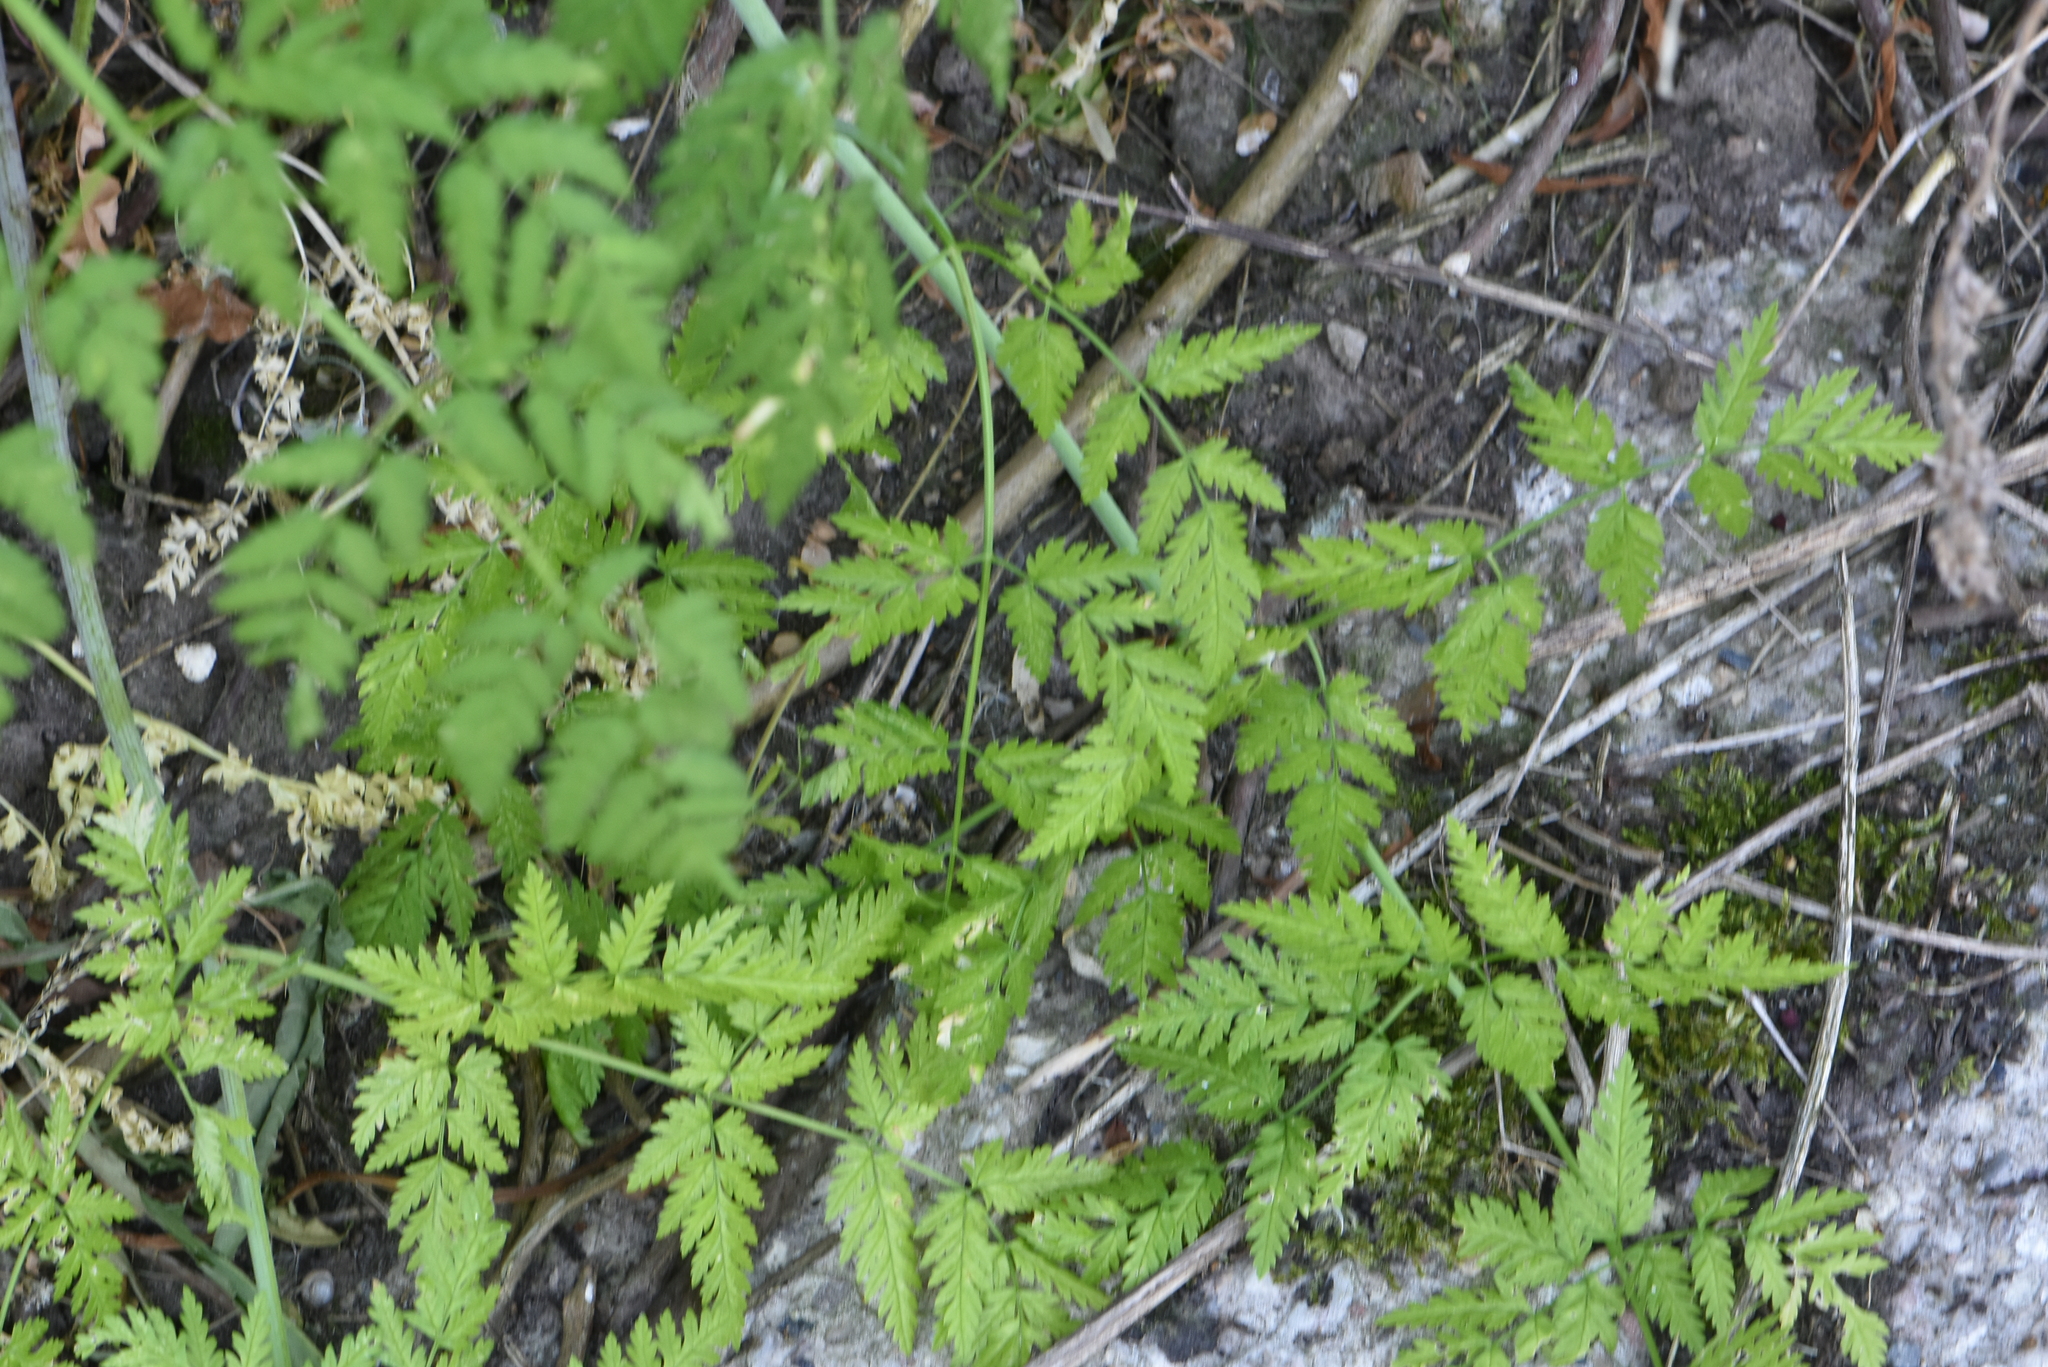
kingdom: Plantae
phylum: Tracheophyta
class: Magnoliopsida
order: Apiales
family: Apiaceae
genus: Anthriscus
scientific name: Anthriscus sylvestris
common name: Cow parsley
